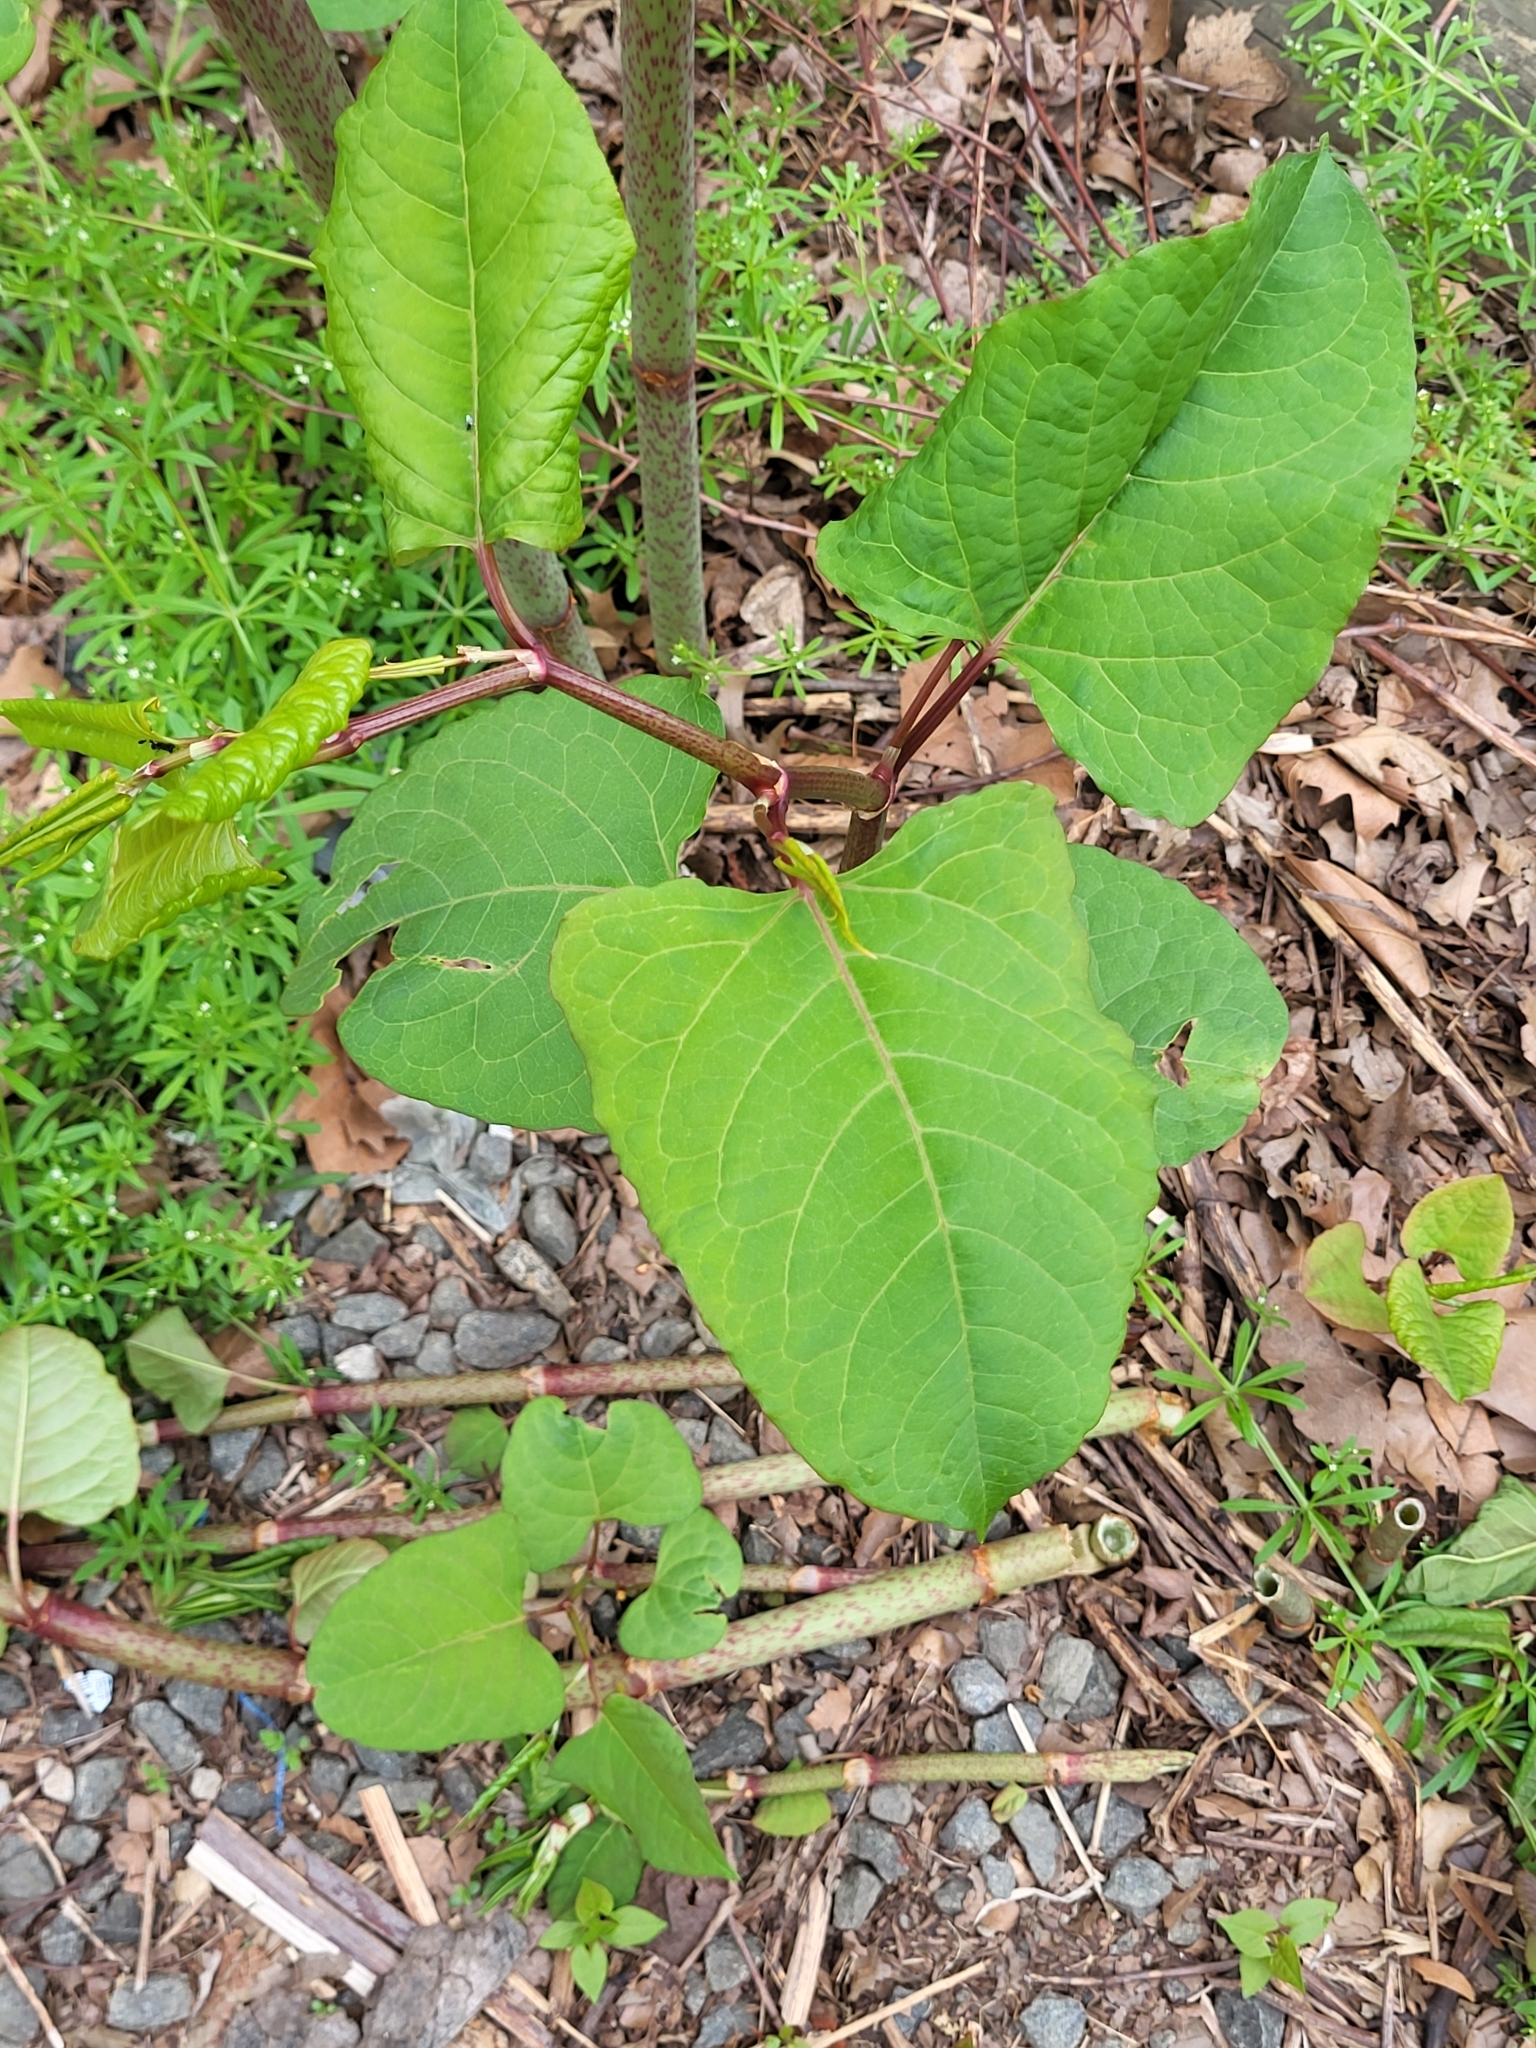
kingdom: Plantae
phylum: Tracheophyta
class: Magnoliopsida
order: Caryophyllales
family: Polygonaceae
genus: Reynoutria
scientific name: Reynoutria japonica
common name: Japanese knotweed
